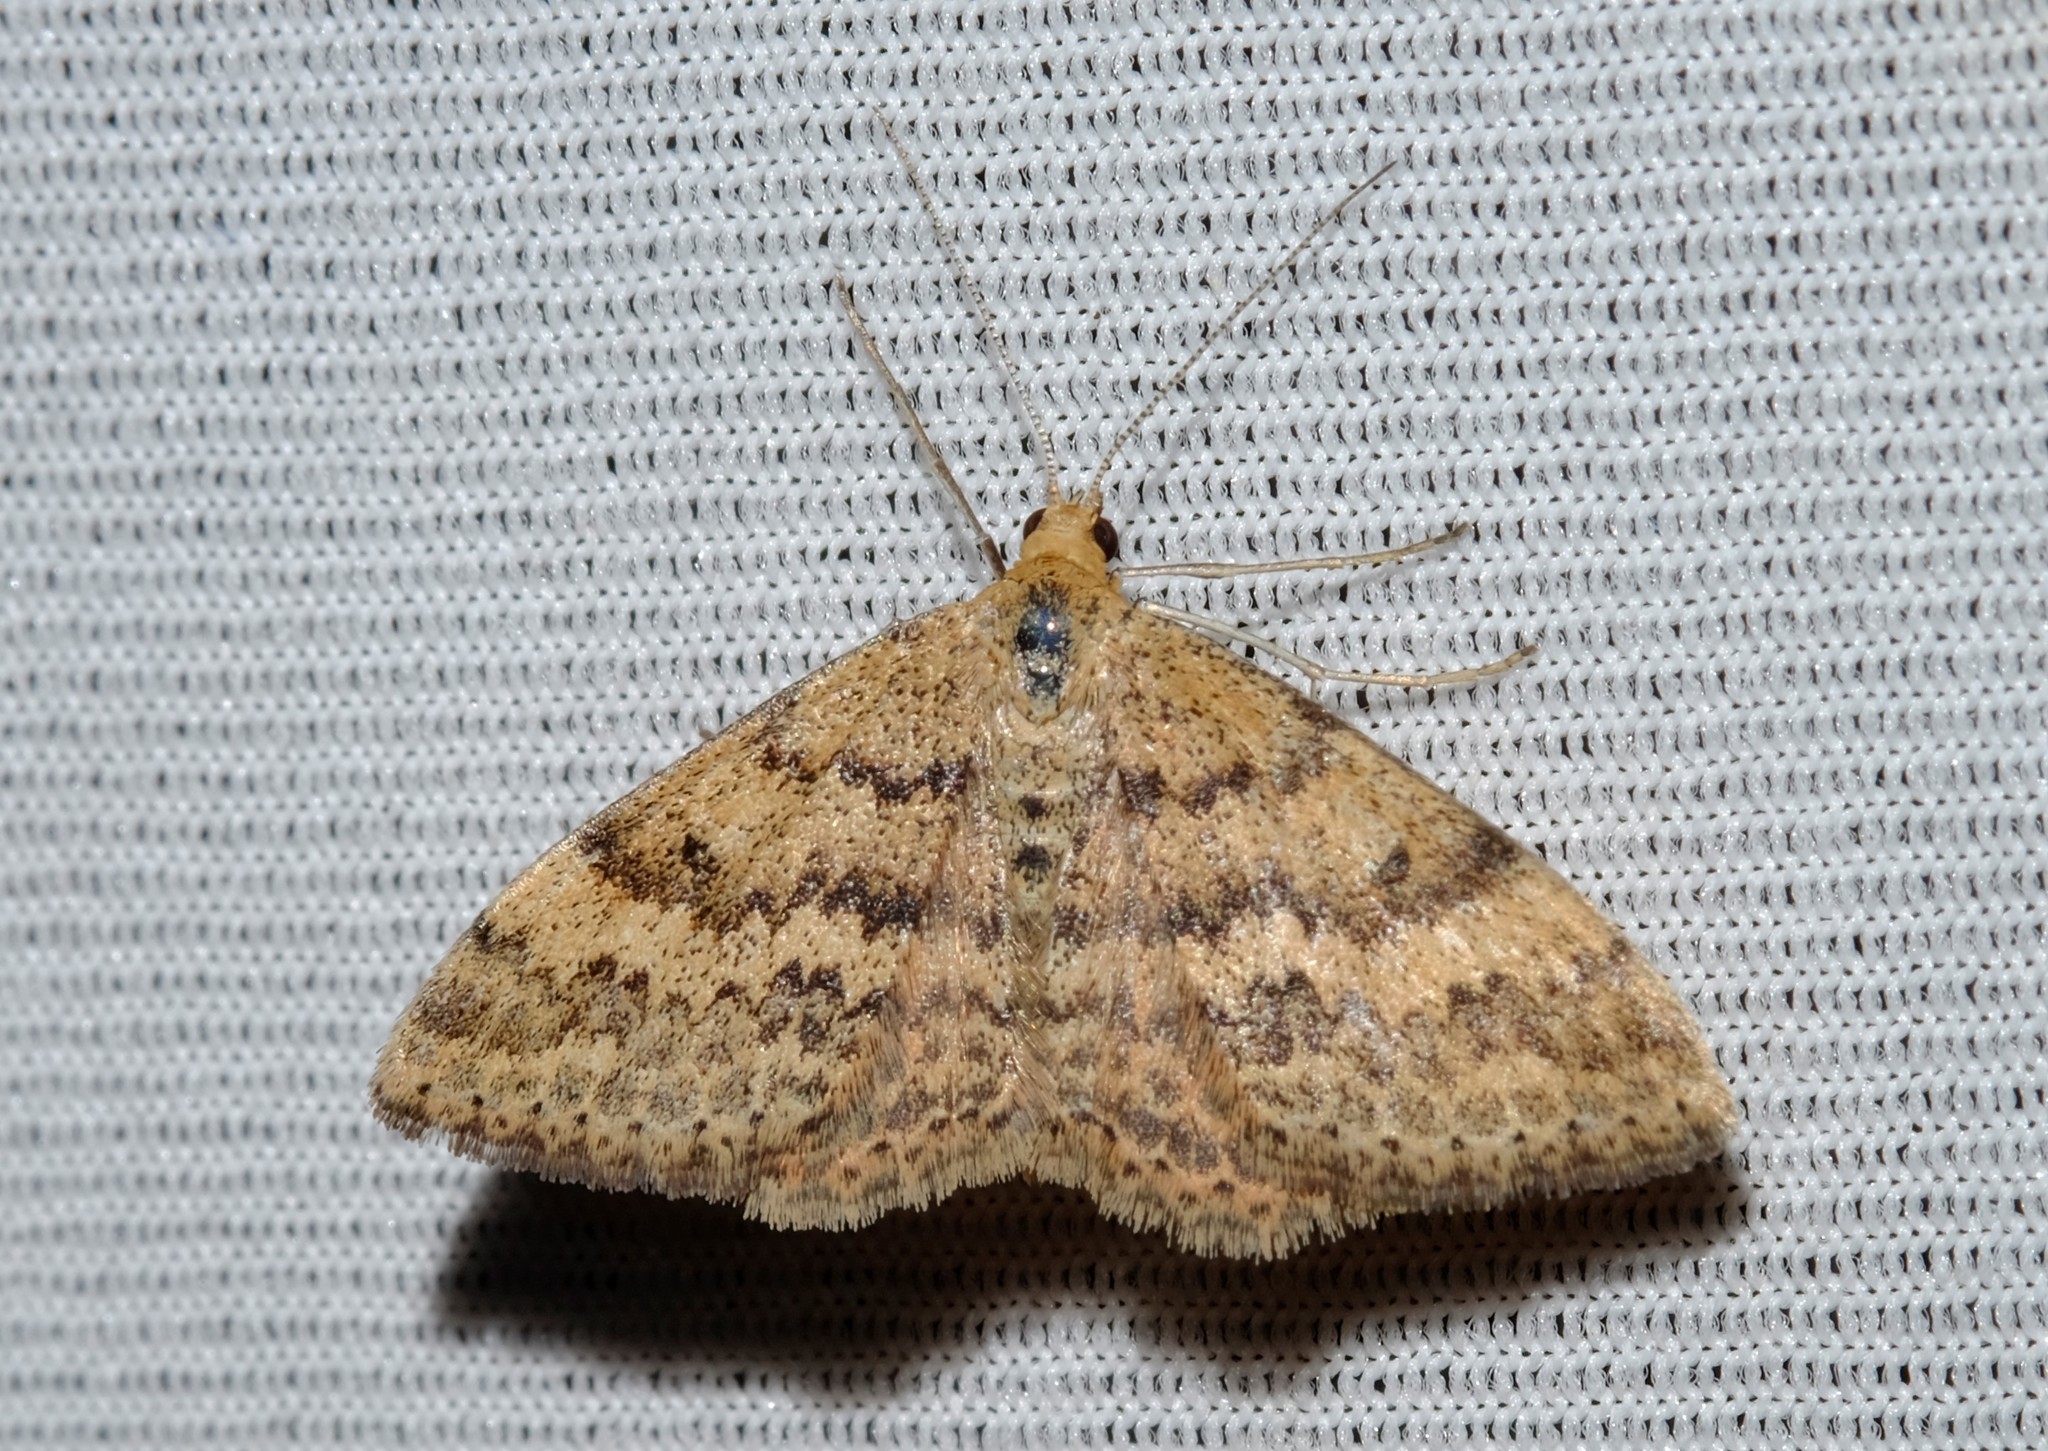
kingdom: Animalia
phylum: Arthropoda
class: Insecta
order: Lepidoptera
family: Geometridae
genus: Scopula
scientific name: Scopula rubraria
